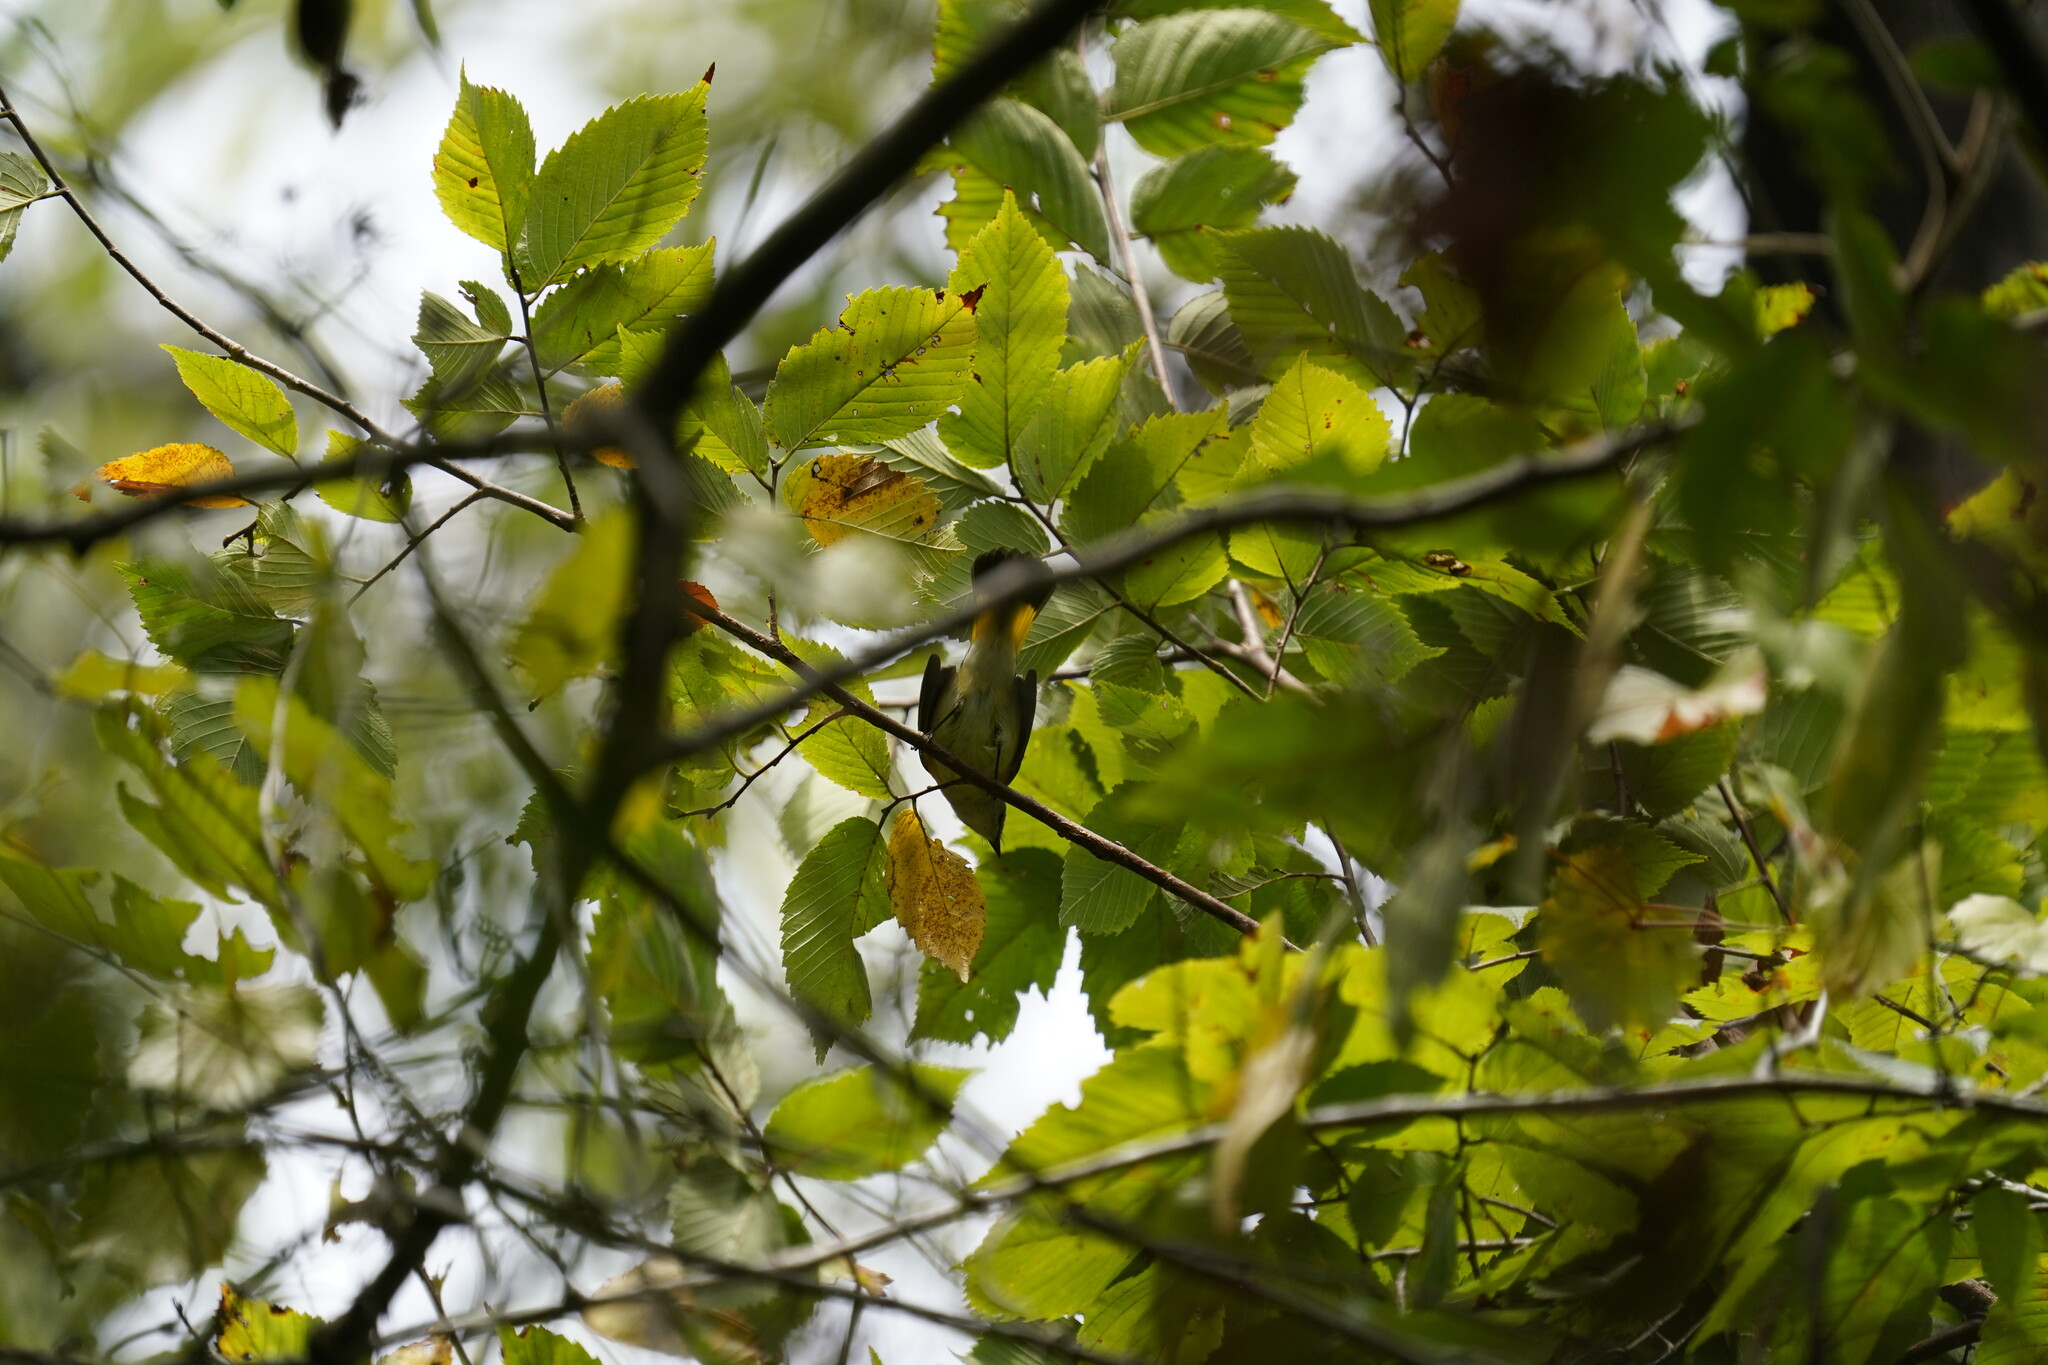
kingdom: Animalia
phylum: Chordata
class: Aves
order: Passeriformes
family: Parulidae
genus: Setophaga
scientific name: Setophaga ruticilla
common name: American redstart
